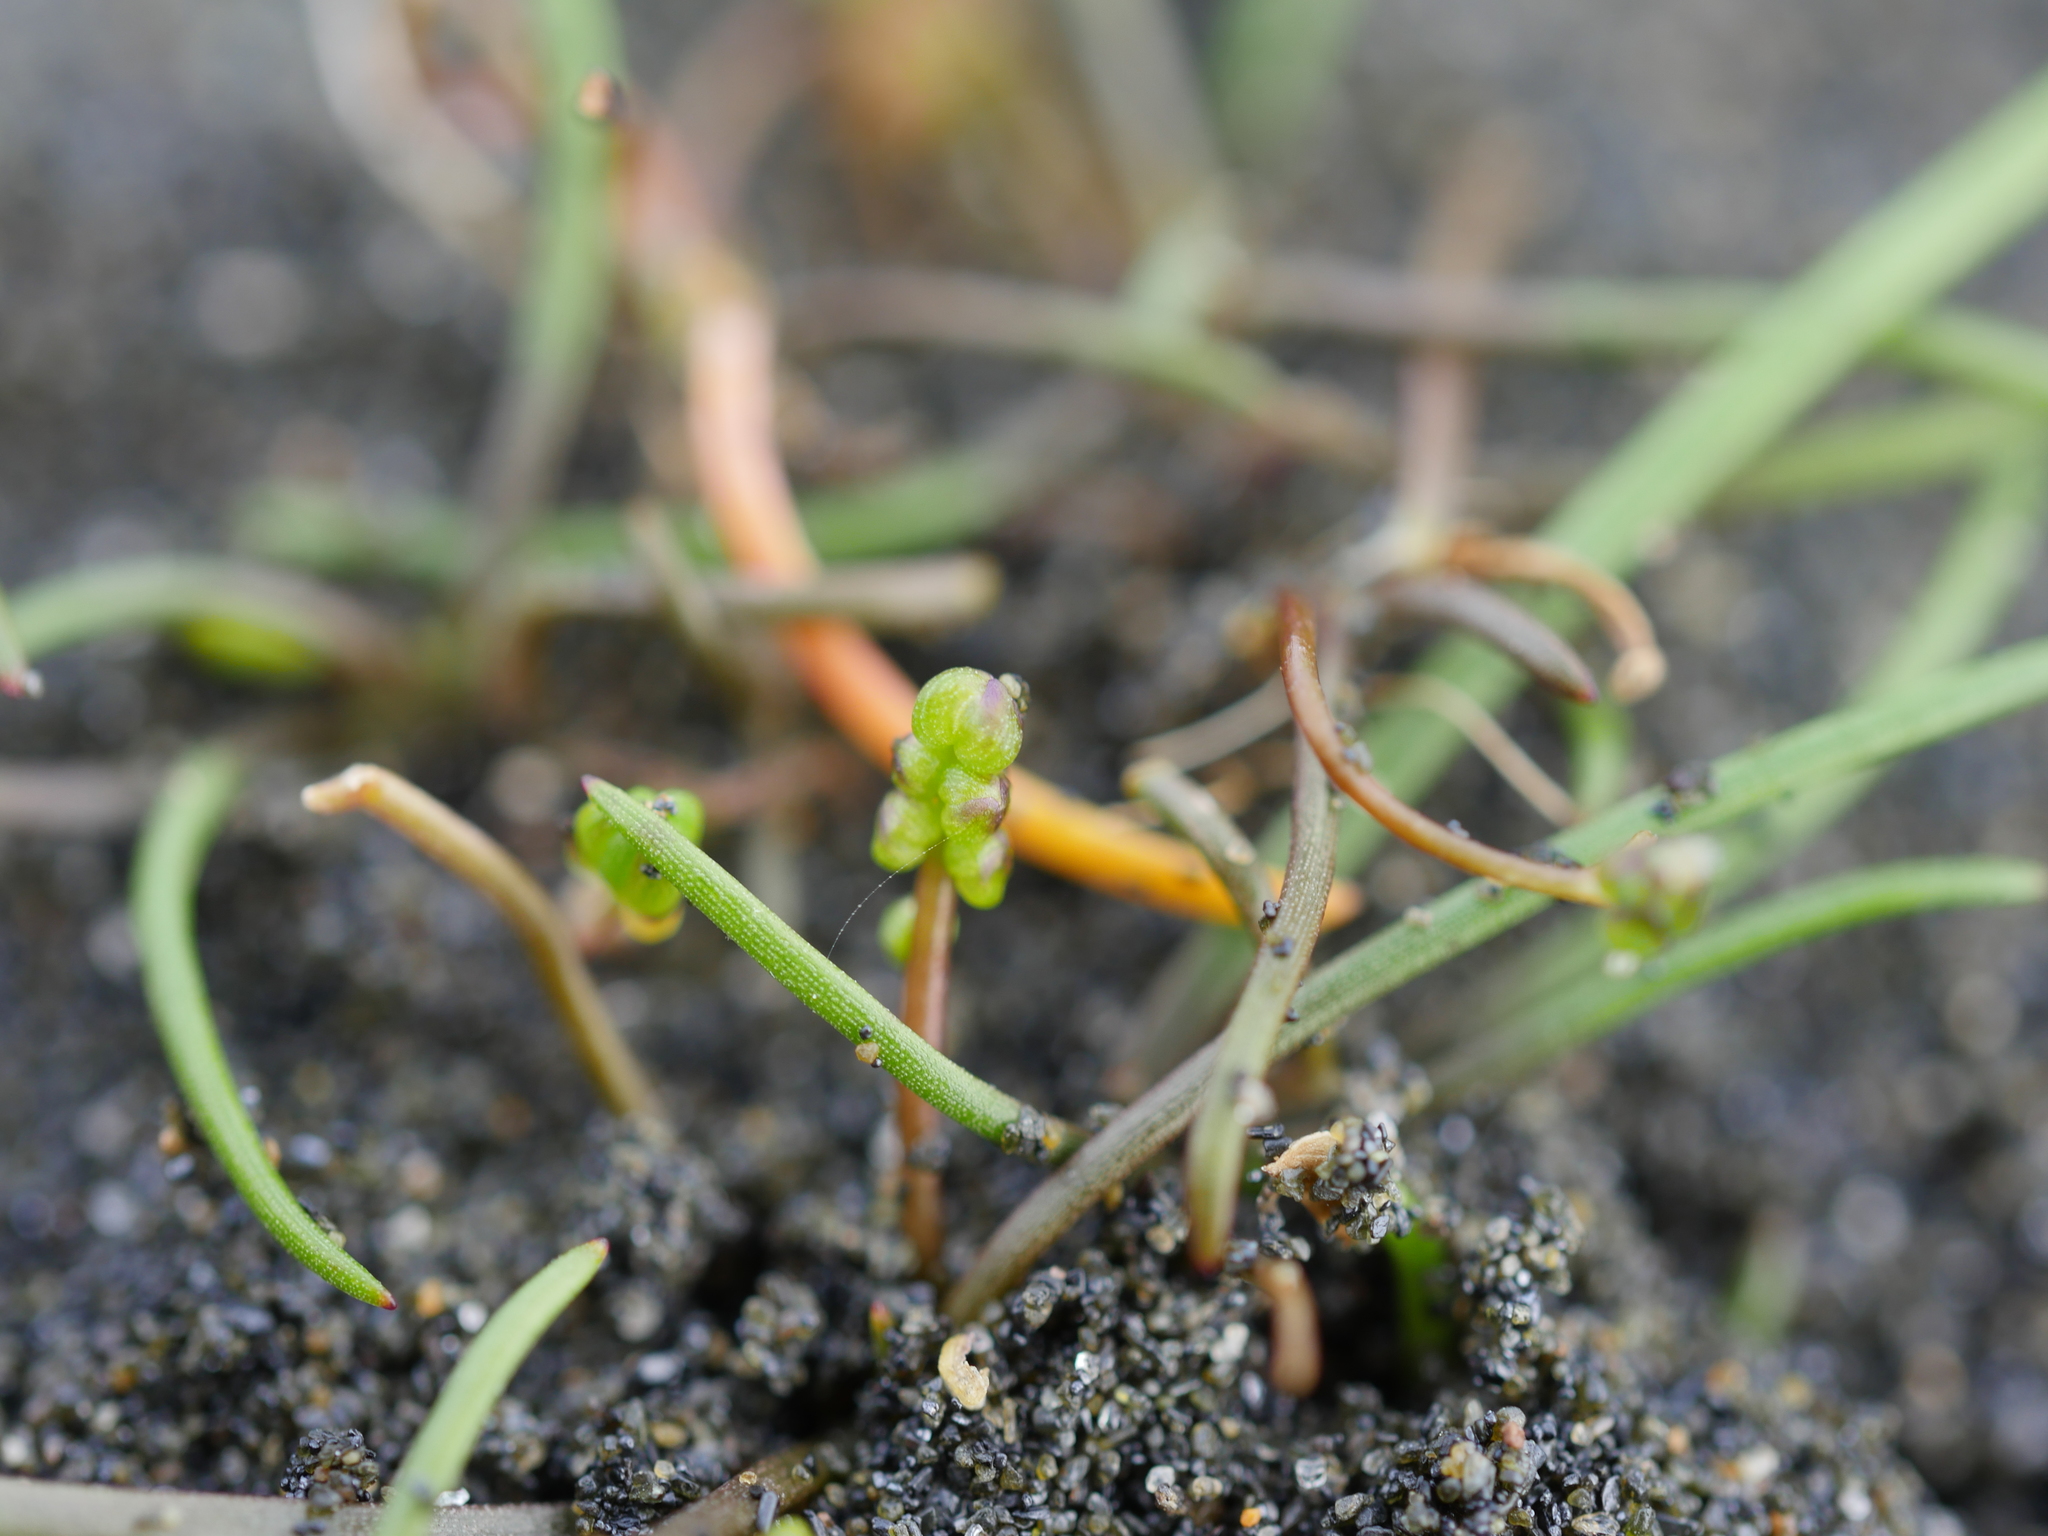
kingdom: Plantae
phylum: Tracheophyta
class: Liliopsida
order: Alismatales
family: Juncaginaceae
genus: Triglochin
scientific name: Triglochin striata
